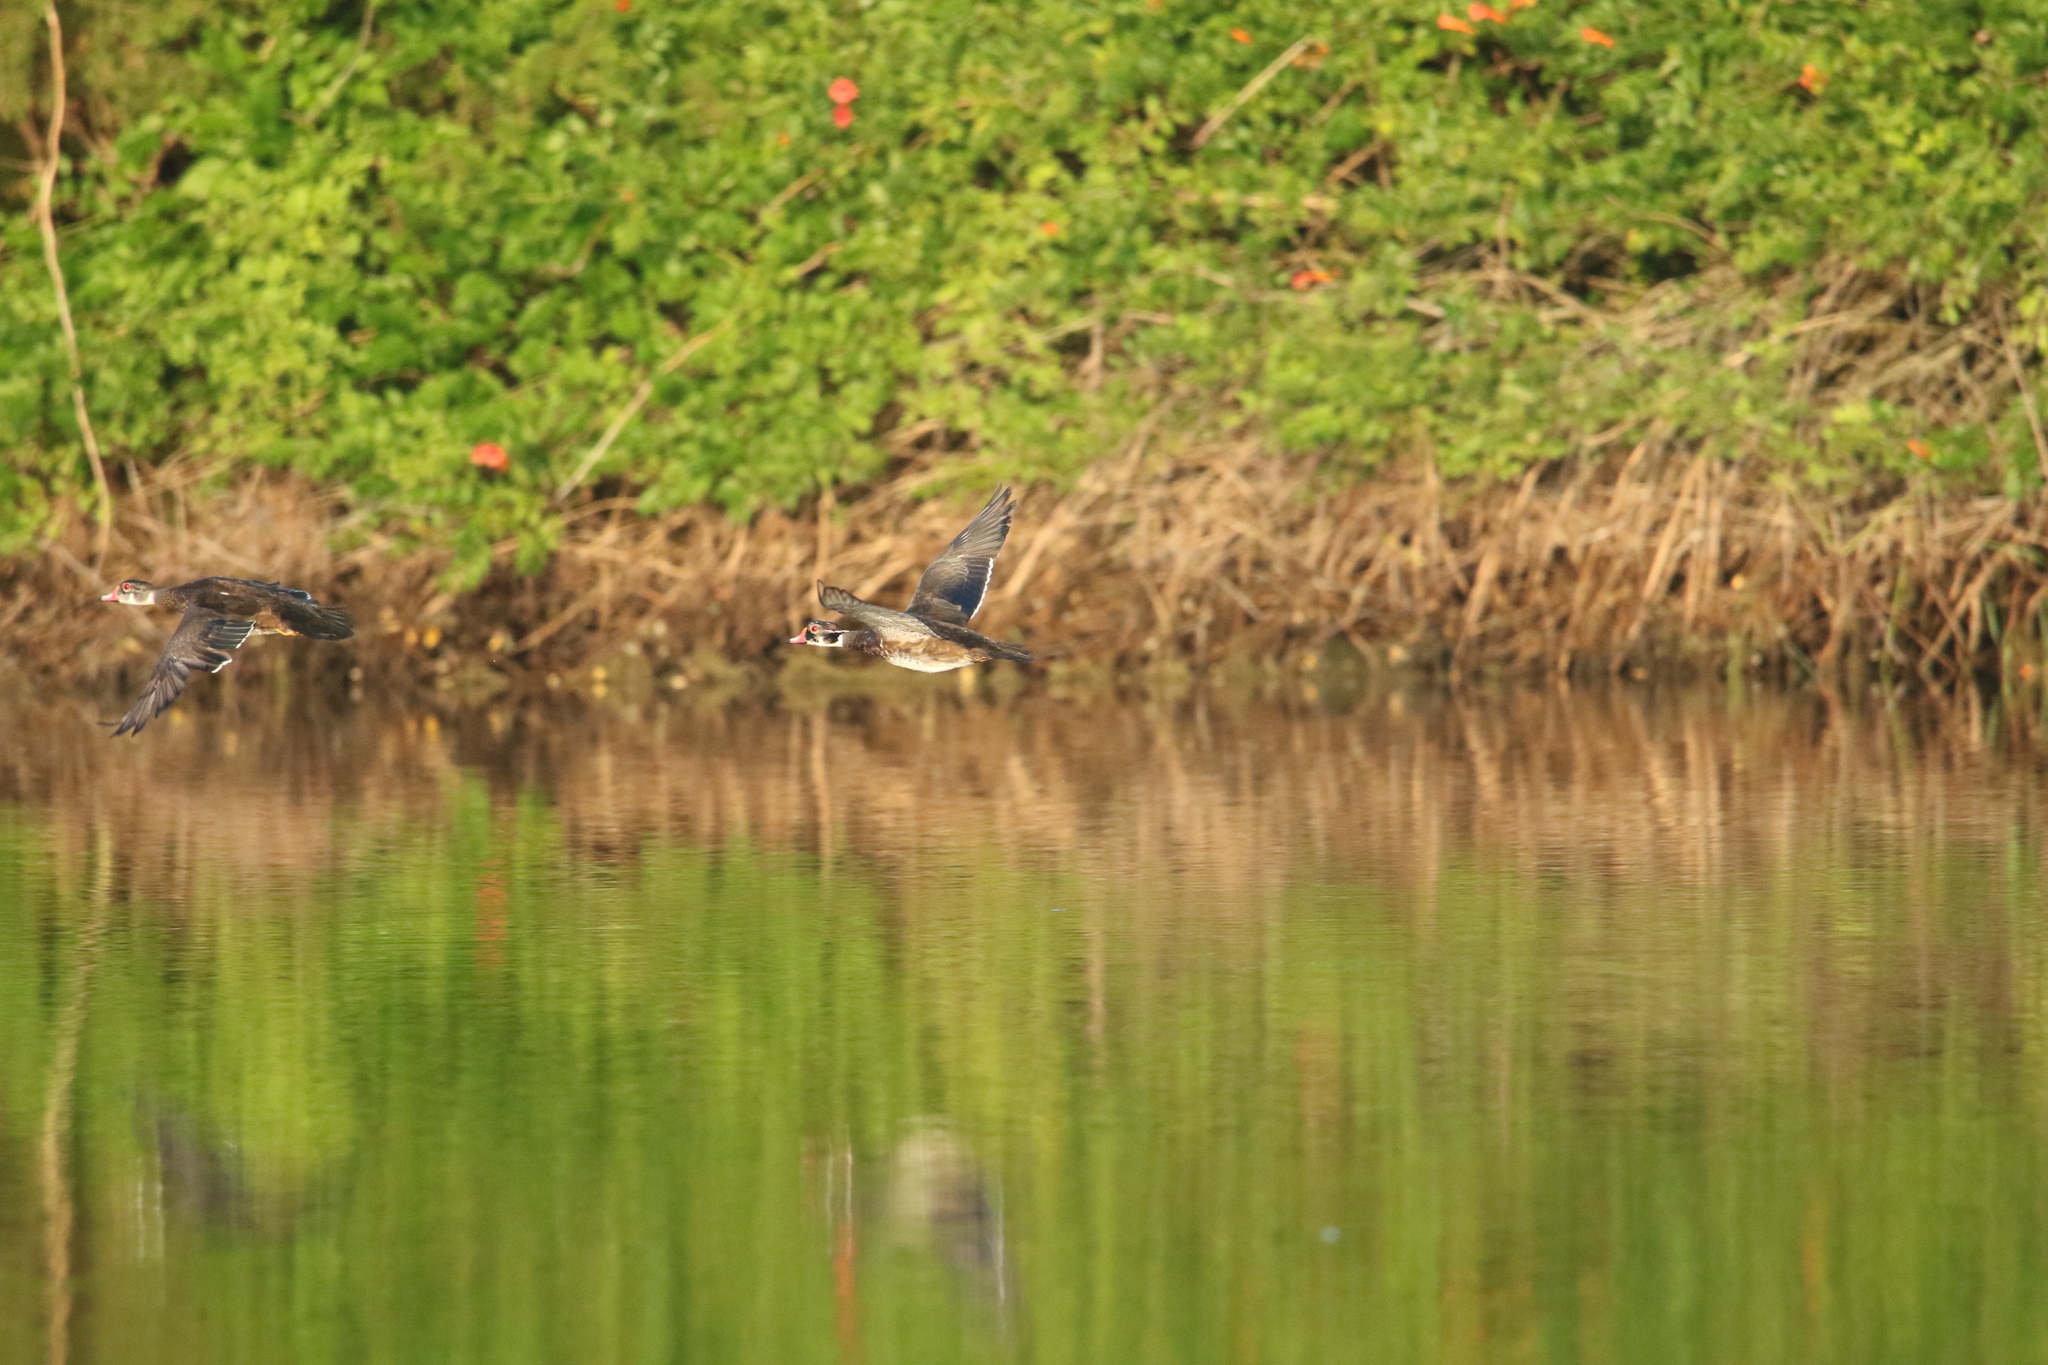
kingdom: Animalia
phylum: Chordata
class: Aves
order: Anseriformes
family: Anatidae
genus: Aix
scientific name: Aix sponsa
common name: Wood duck
